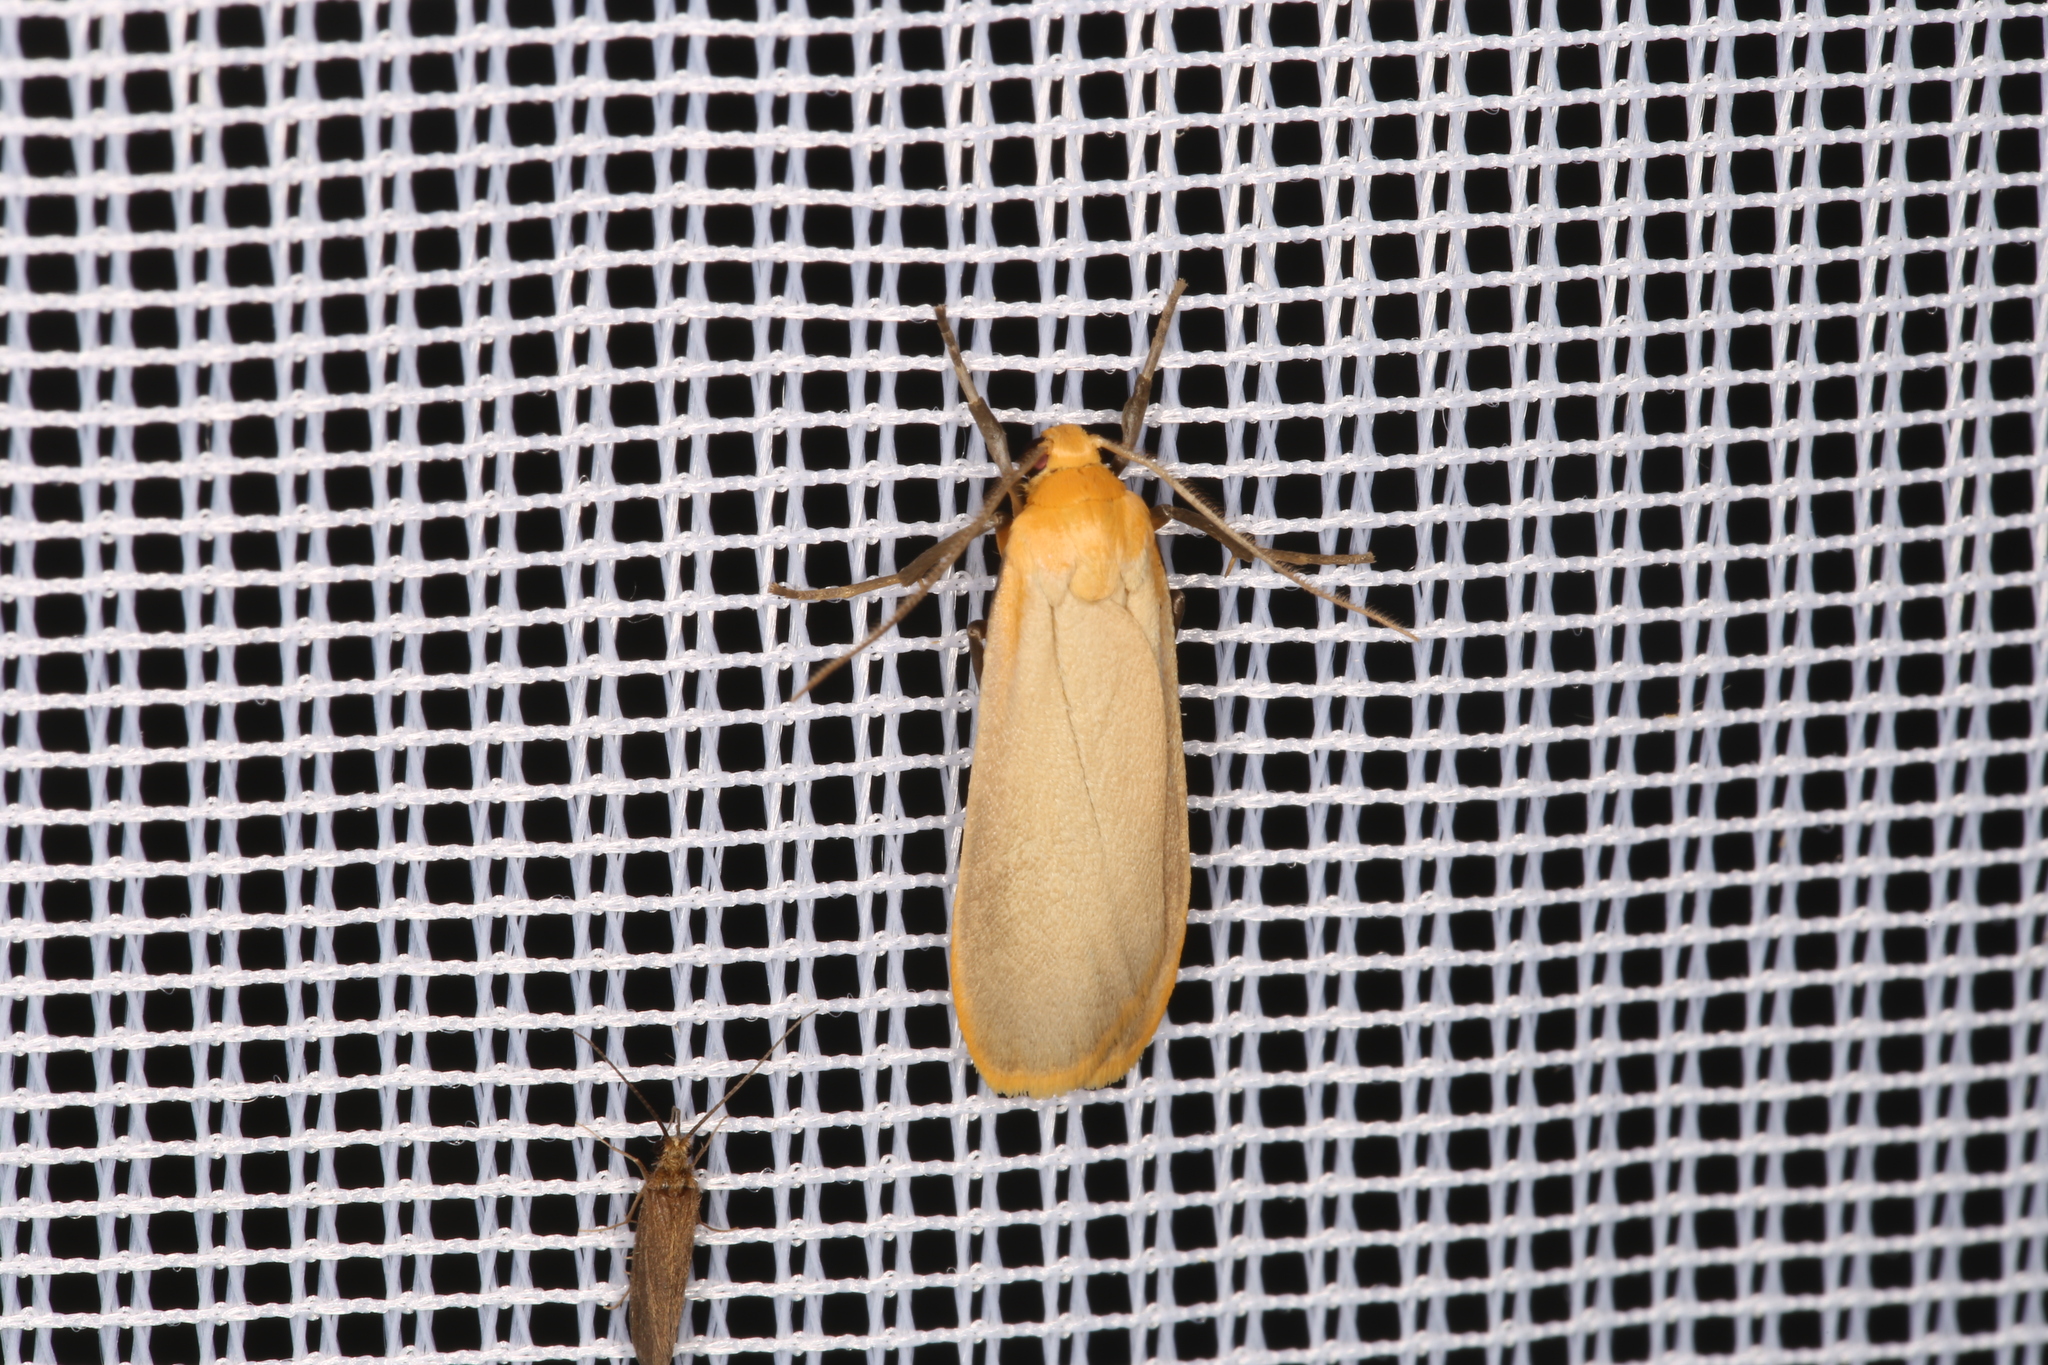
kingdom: Animalia
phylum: Arthropoda
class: Insecta
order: Lepidoptera
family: Erebidae
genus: Katha
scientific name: Katha depressa
